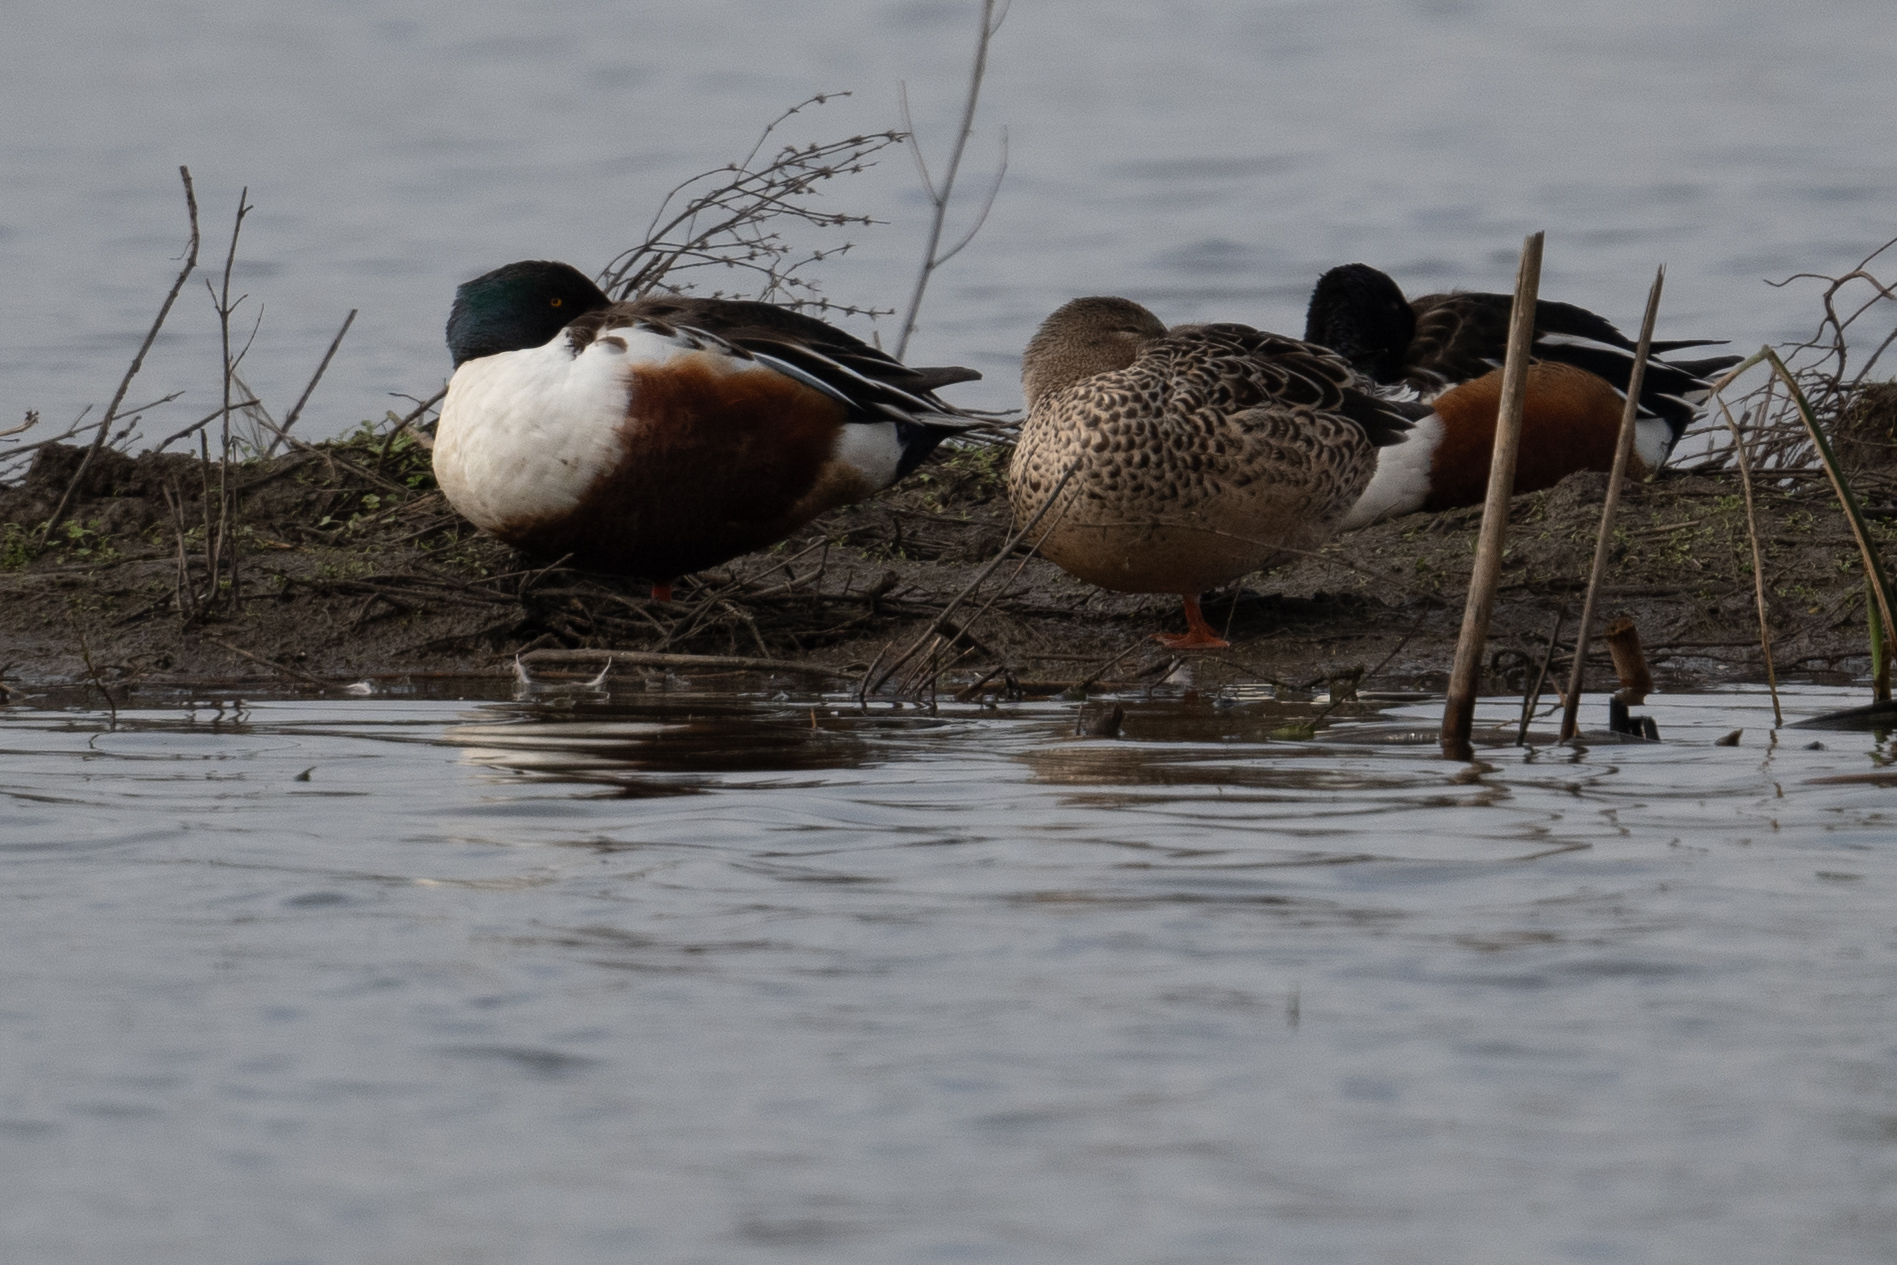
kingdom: Animalia
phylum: Chordata
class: Aves
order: Anseriformes
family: Anatidae
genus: Spatula
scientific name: Spatula clypeata
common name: Northern shoveler
